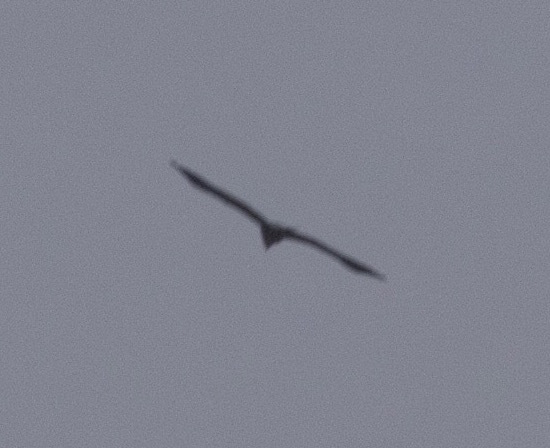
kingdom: Animalia
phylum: Chordata
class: Aves
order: Accipitriformes
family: Accipitridae
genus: Haliaeetus
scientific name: Haliaeetus albicilla
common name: White-tailed eagle
